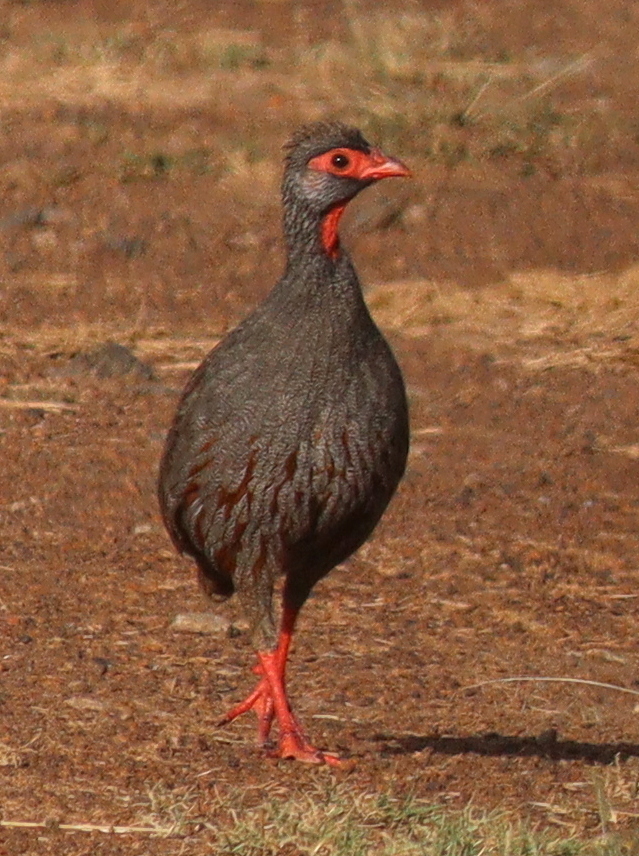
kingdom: Animalia
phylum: Chordata
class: Aves
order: Galliformes
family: Phasianidae
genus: Pternistis
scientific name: Pternistis afer
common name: Red-necked spurfowl
